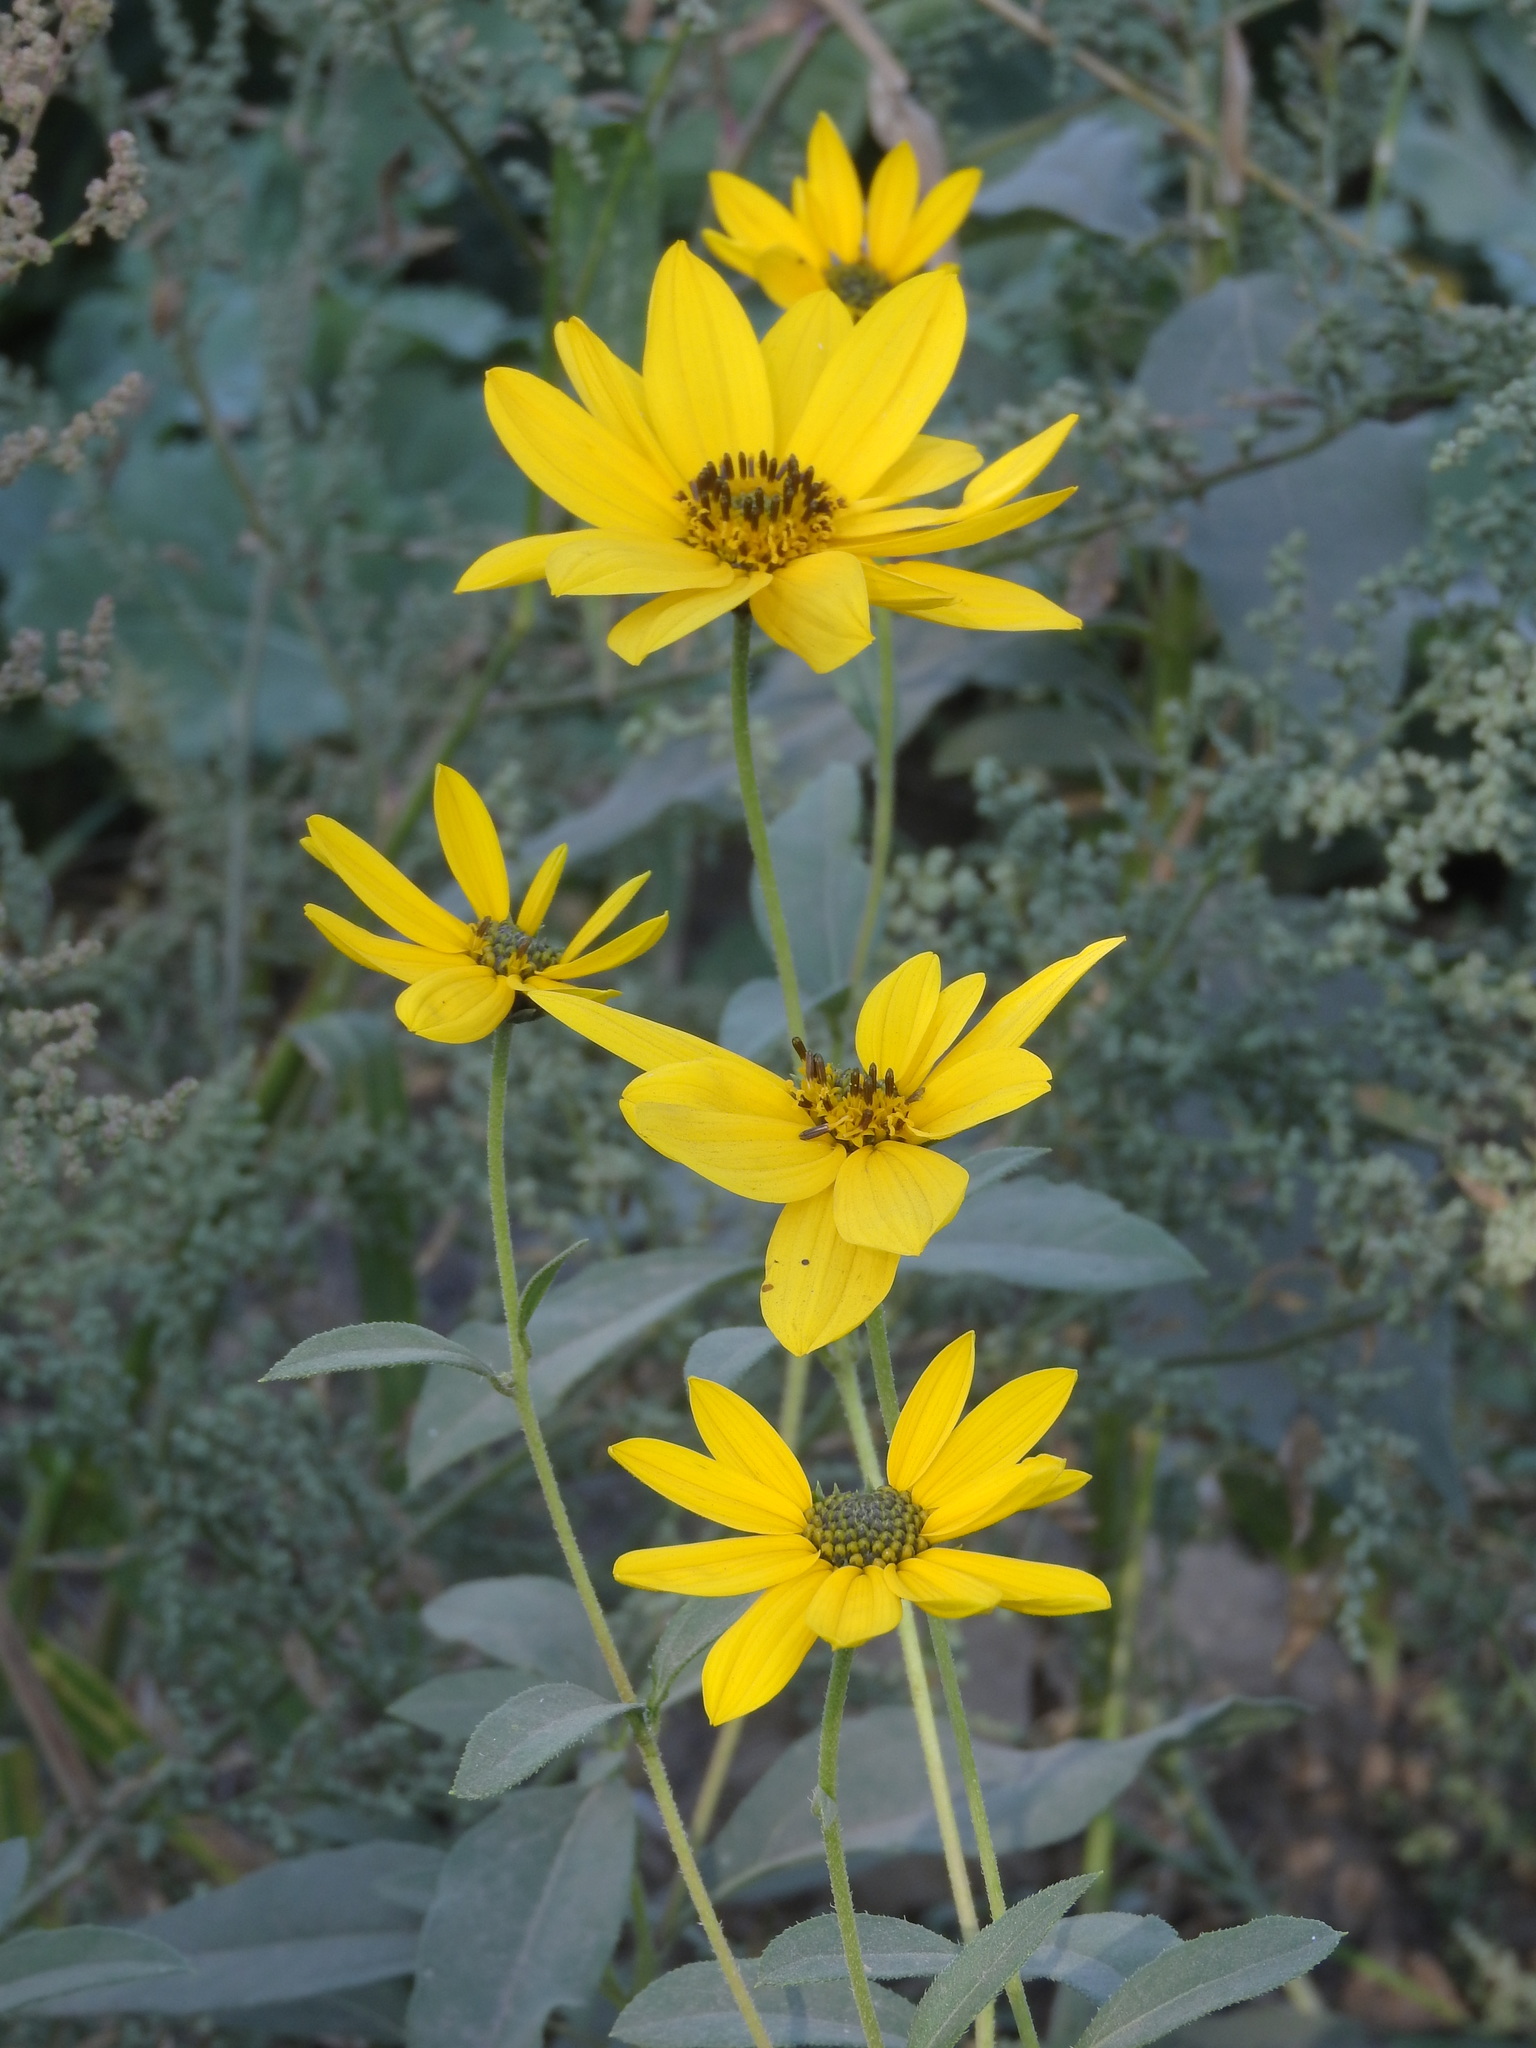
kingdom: Plantae
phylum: Tracheophyta
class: Magnoliopsida
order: Asterales
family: Asteraceae
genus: Helianthus
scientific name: Helianthus tuberosus
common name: Jerusalem artichoke
